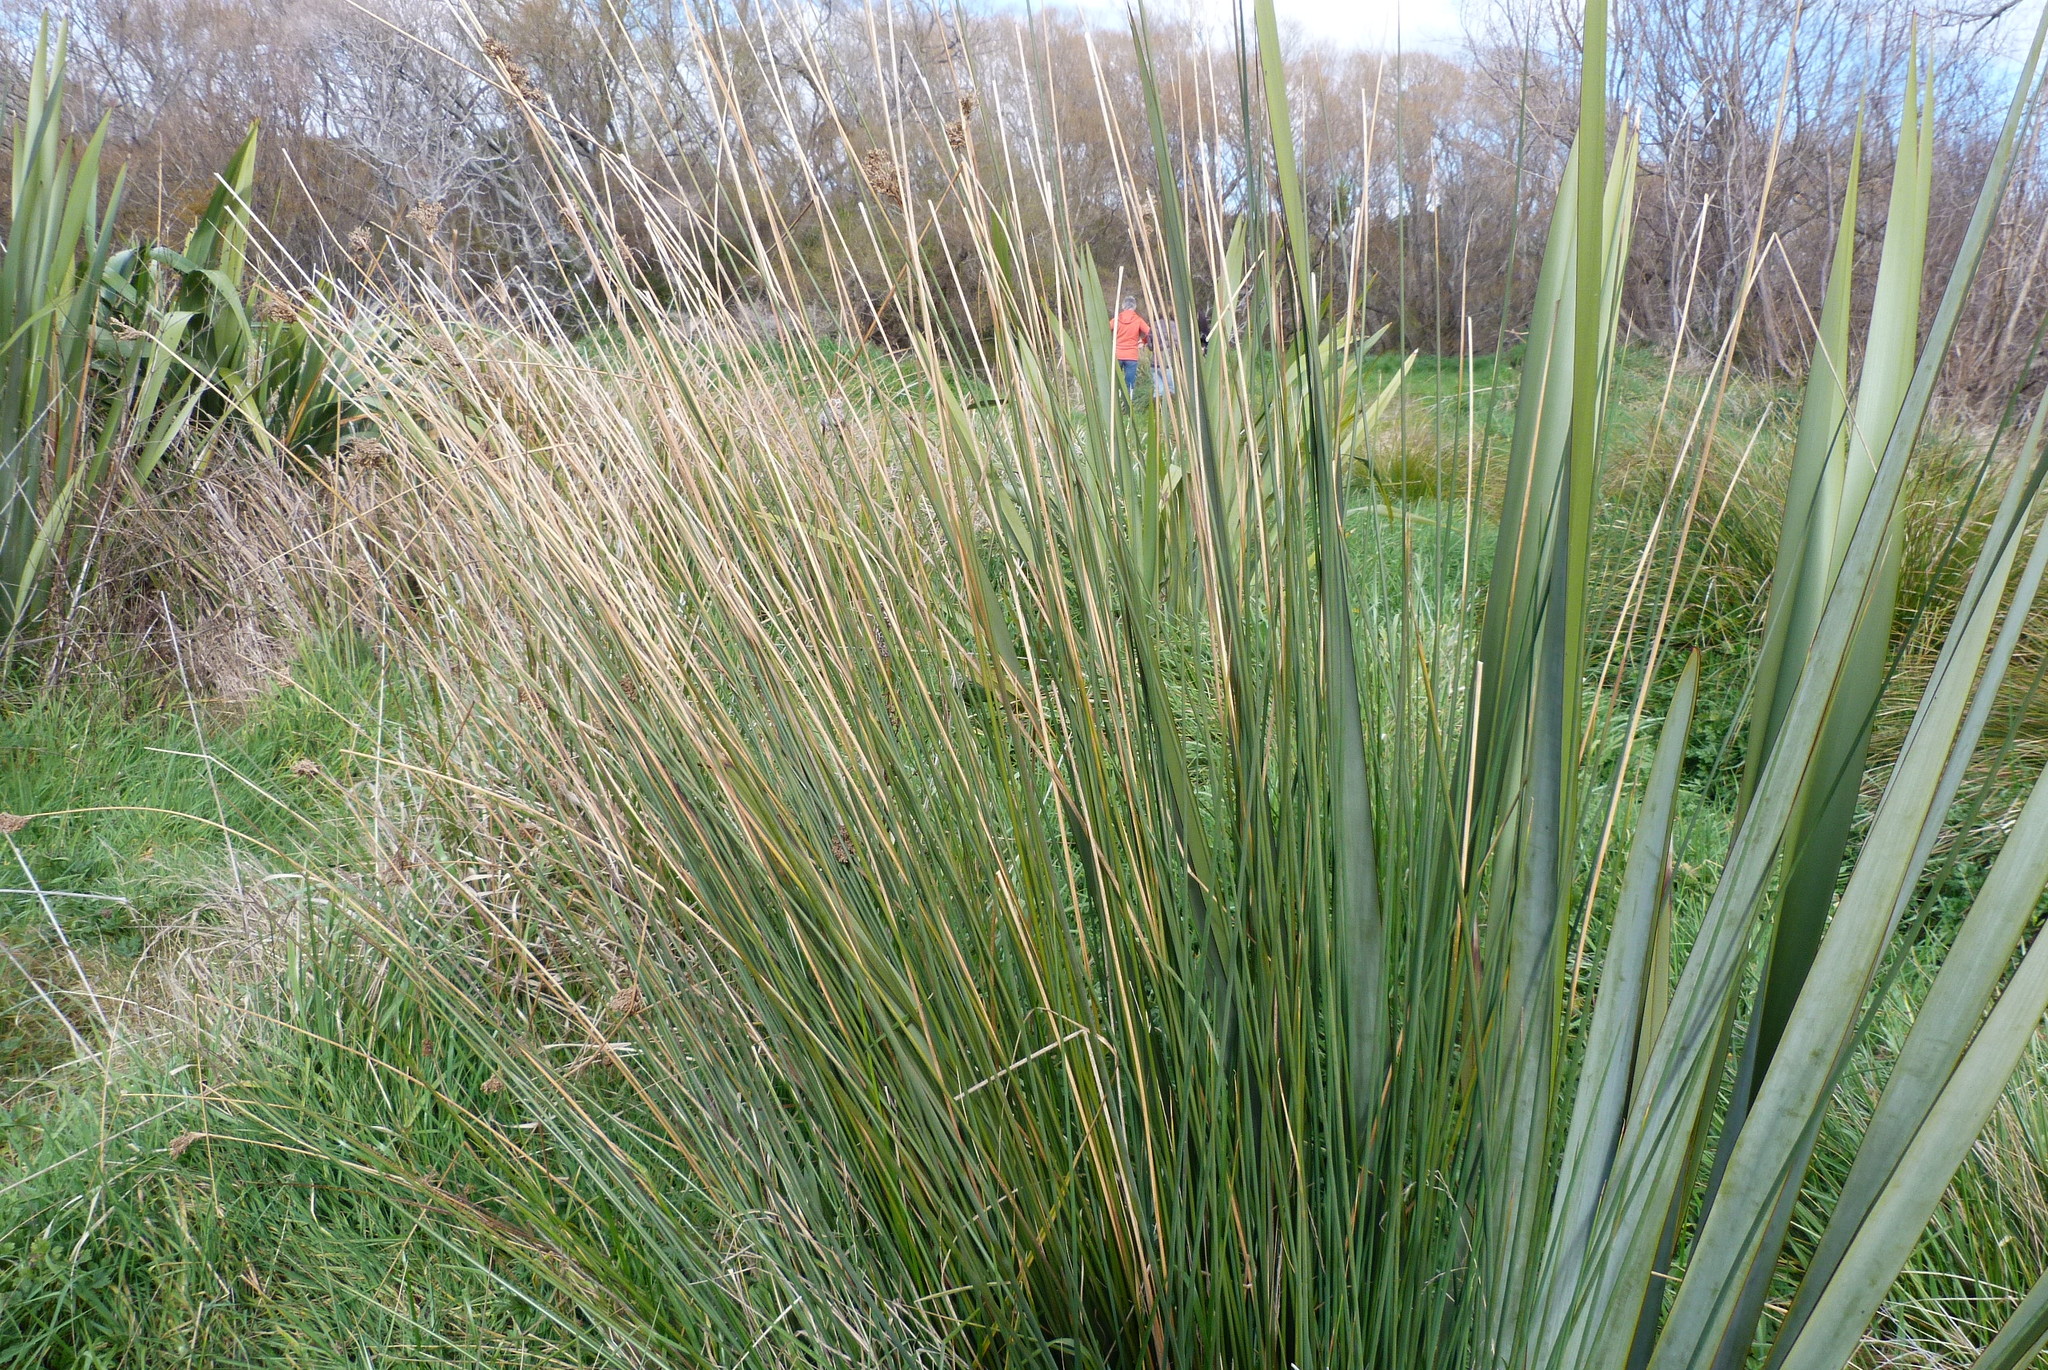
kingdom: Plantae
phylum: Tracheophyta
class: Liliopsida
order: Poales
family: Juncaceae
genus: Juncus
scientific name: Juncus pallidus
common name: Great soft-rush
